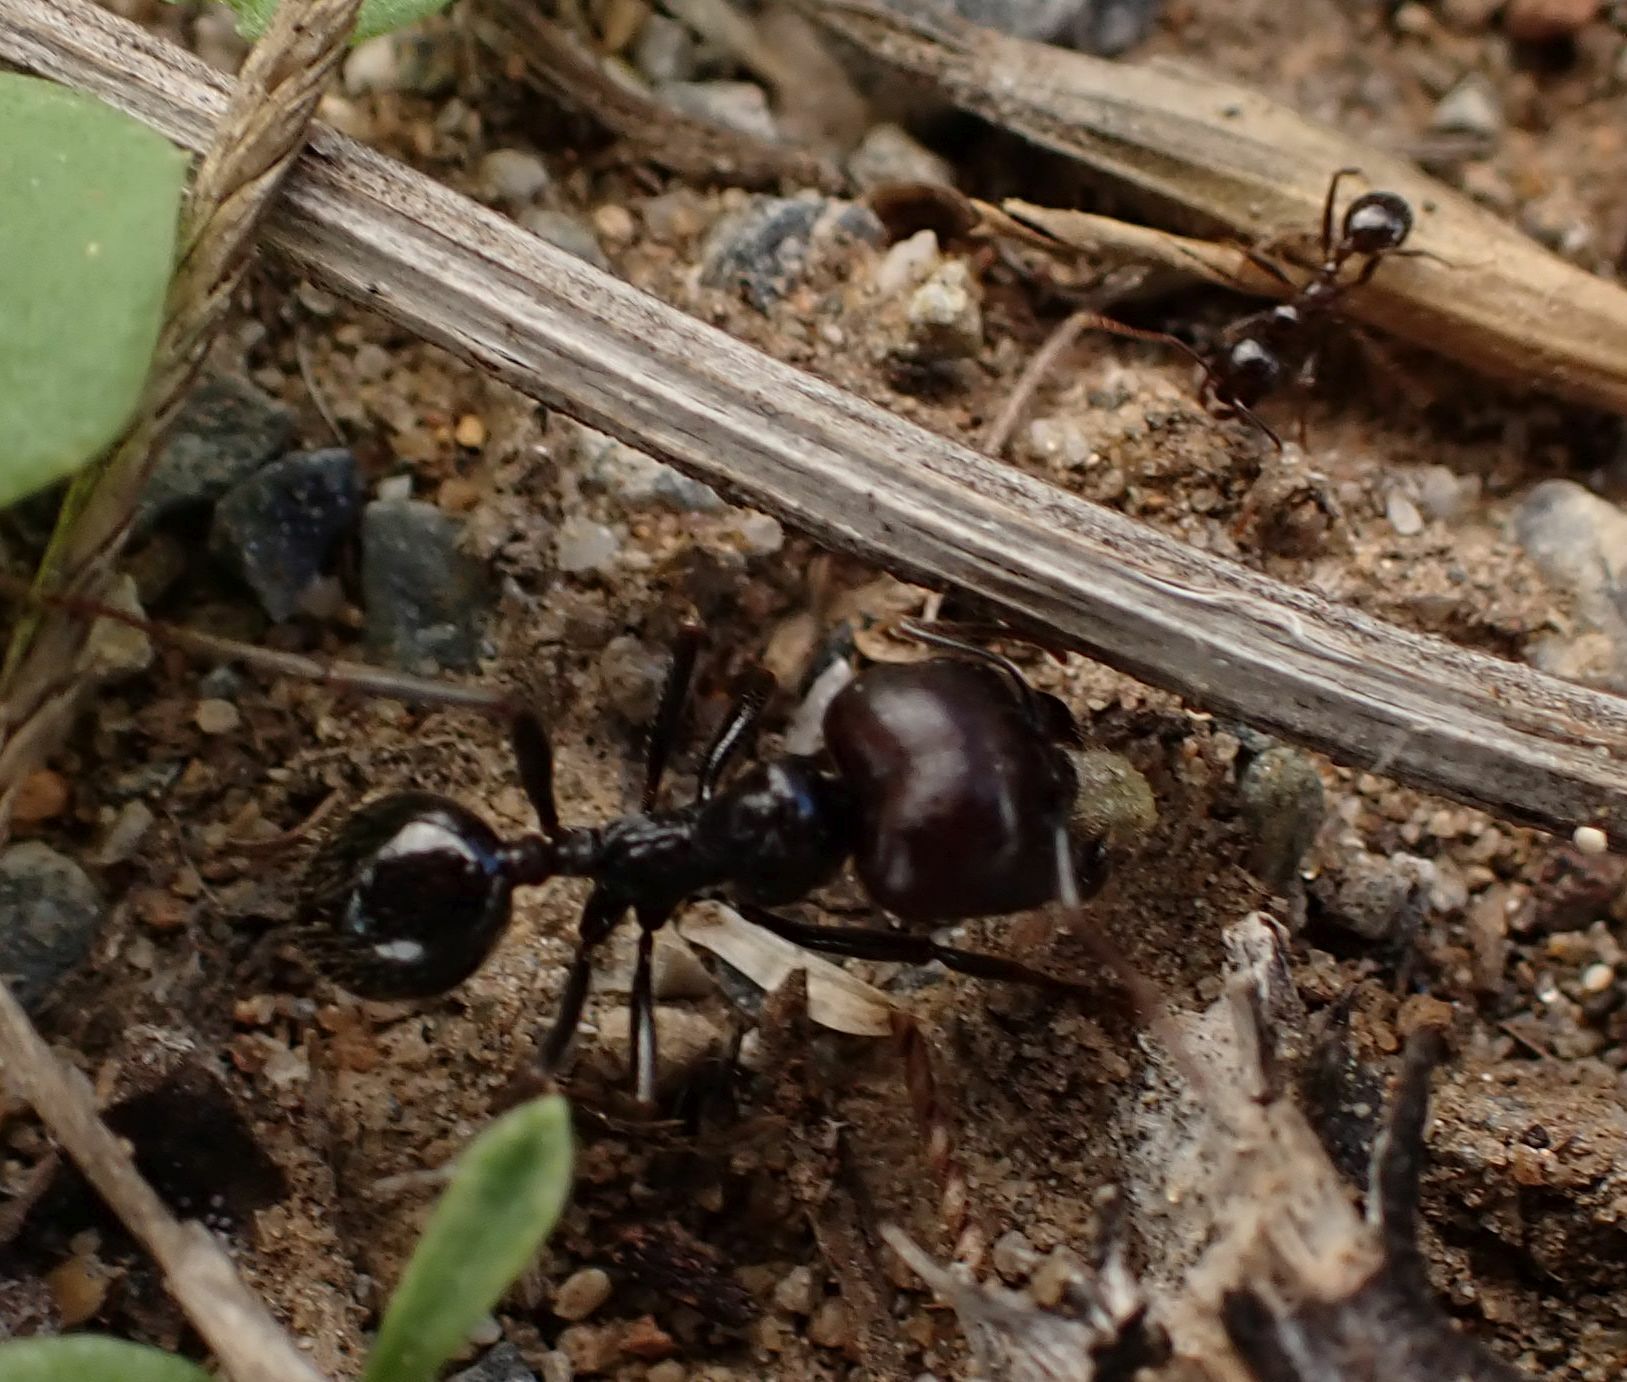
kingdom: Animalia
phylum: Arthropoda
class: Insecta
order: Hymenoptera
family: Formicidae
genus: Messor
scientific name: Messor barbarus
